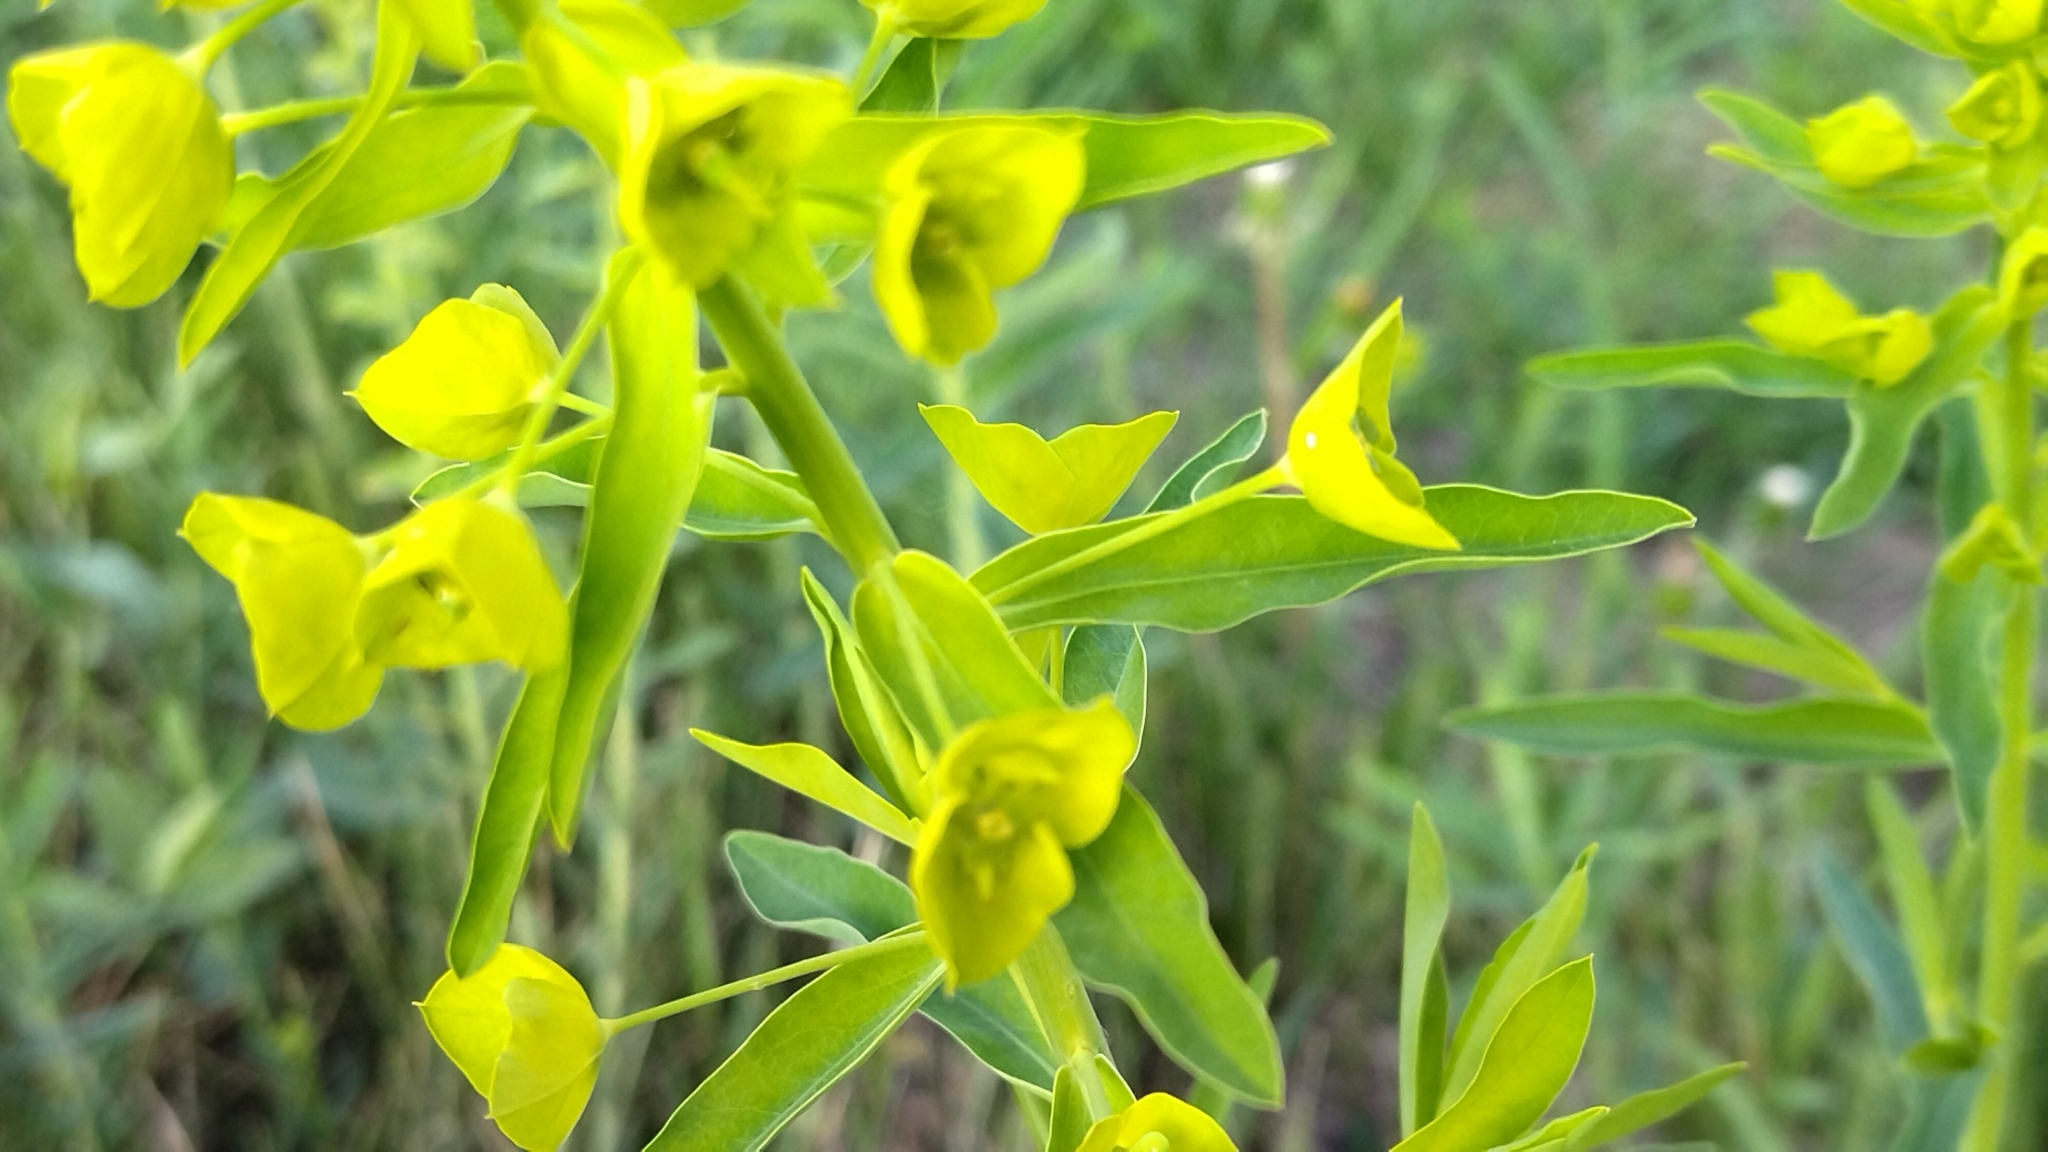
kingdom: Plantae
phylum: Tracheophyta
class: Magnoliopsida
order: Malpighiales
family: Euphorbiaceae
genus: Euphorbia
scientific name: Euphorbia virgata
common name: Leafy spurge
